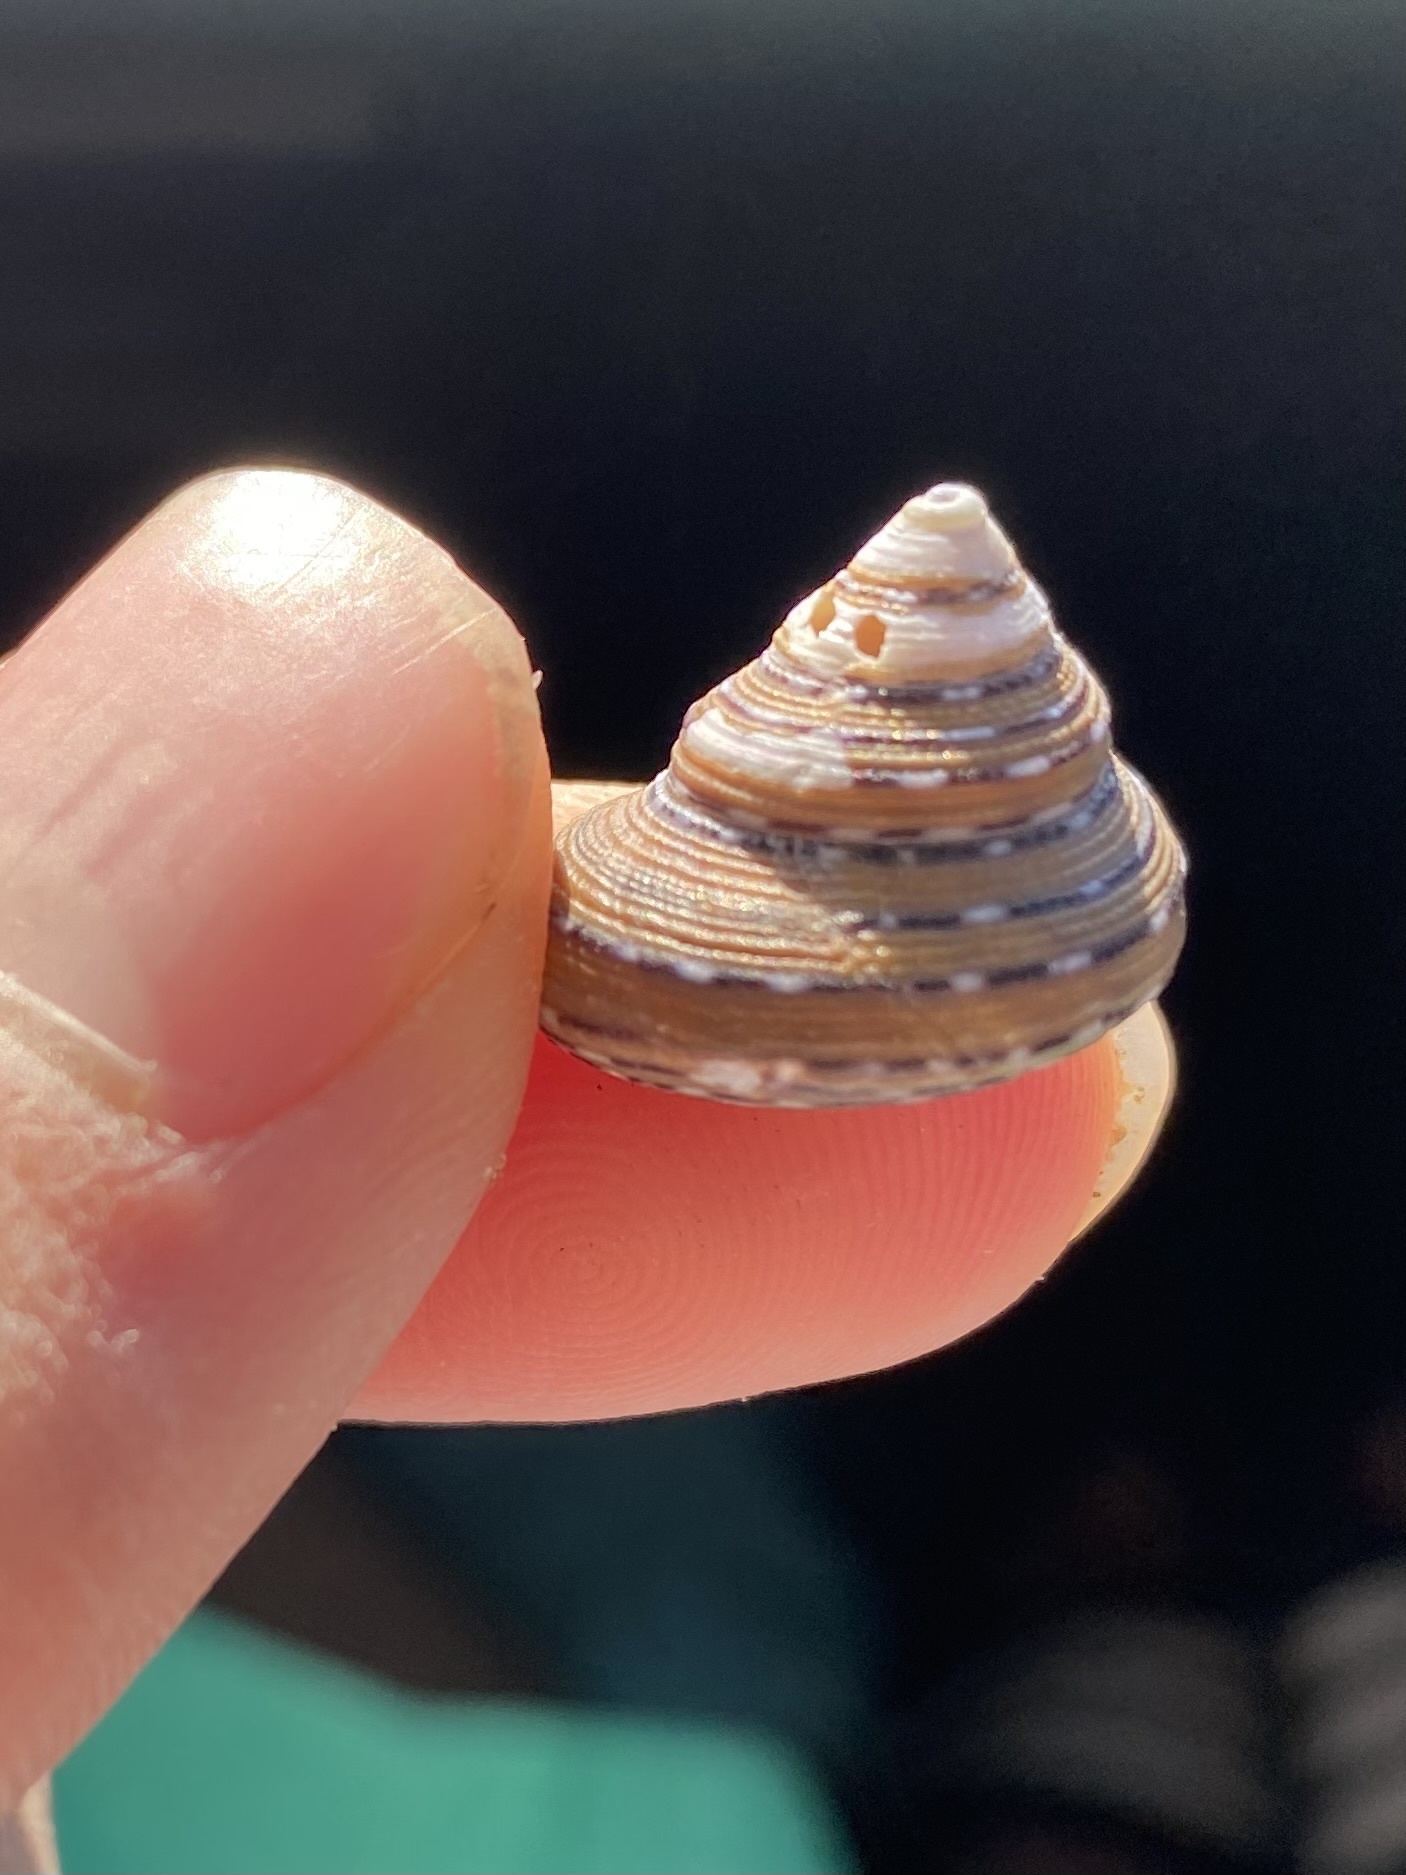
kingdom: Animalia
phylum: Mollusca
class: Gastropoda
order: Trochida
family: Calliostomatidae
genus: Calliostoma
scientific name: Calliostoma tricolor
